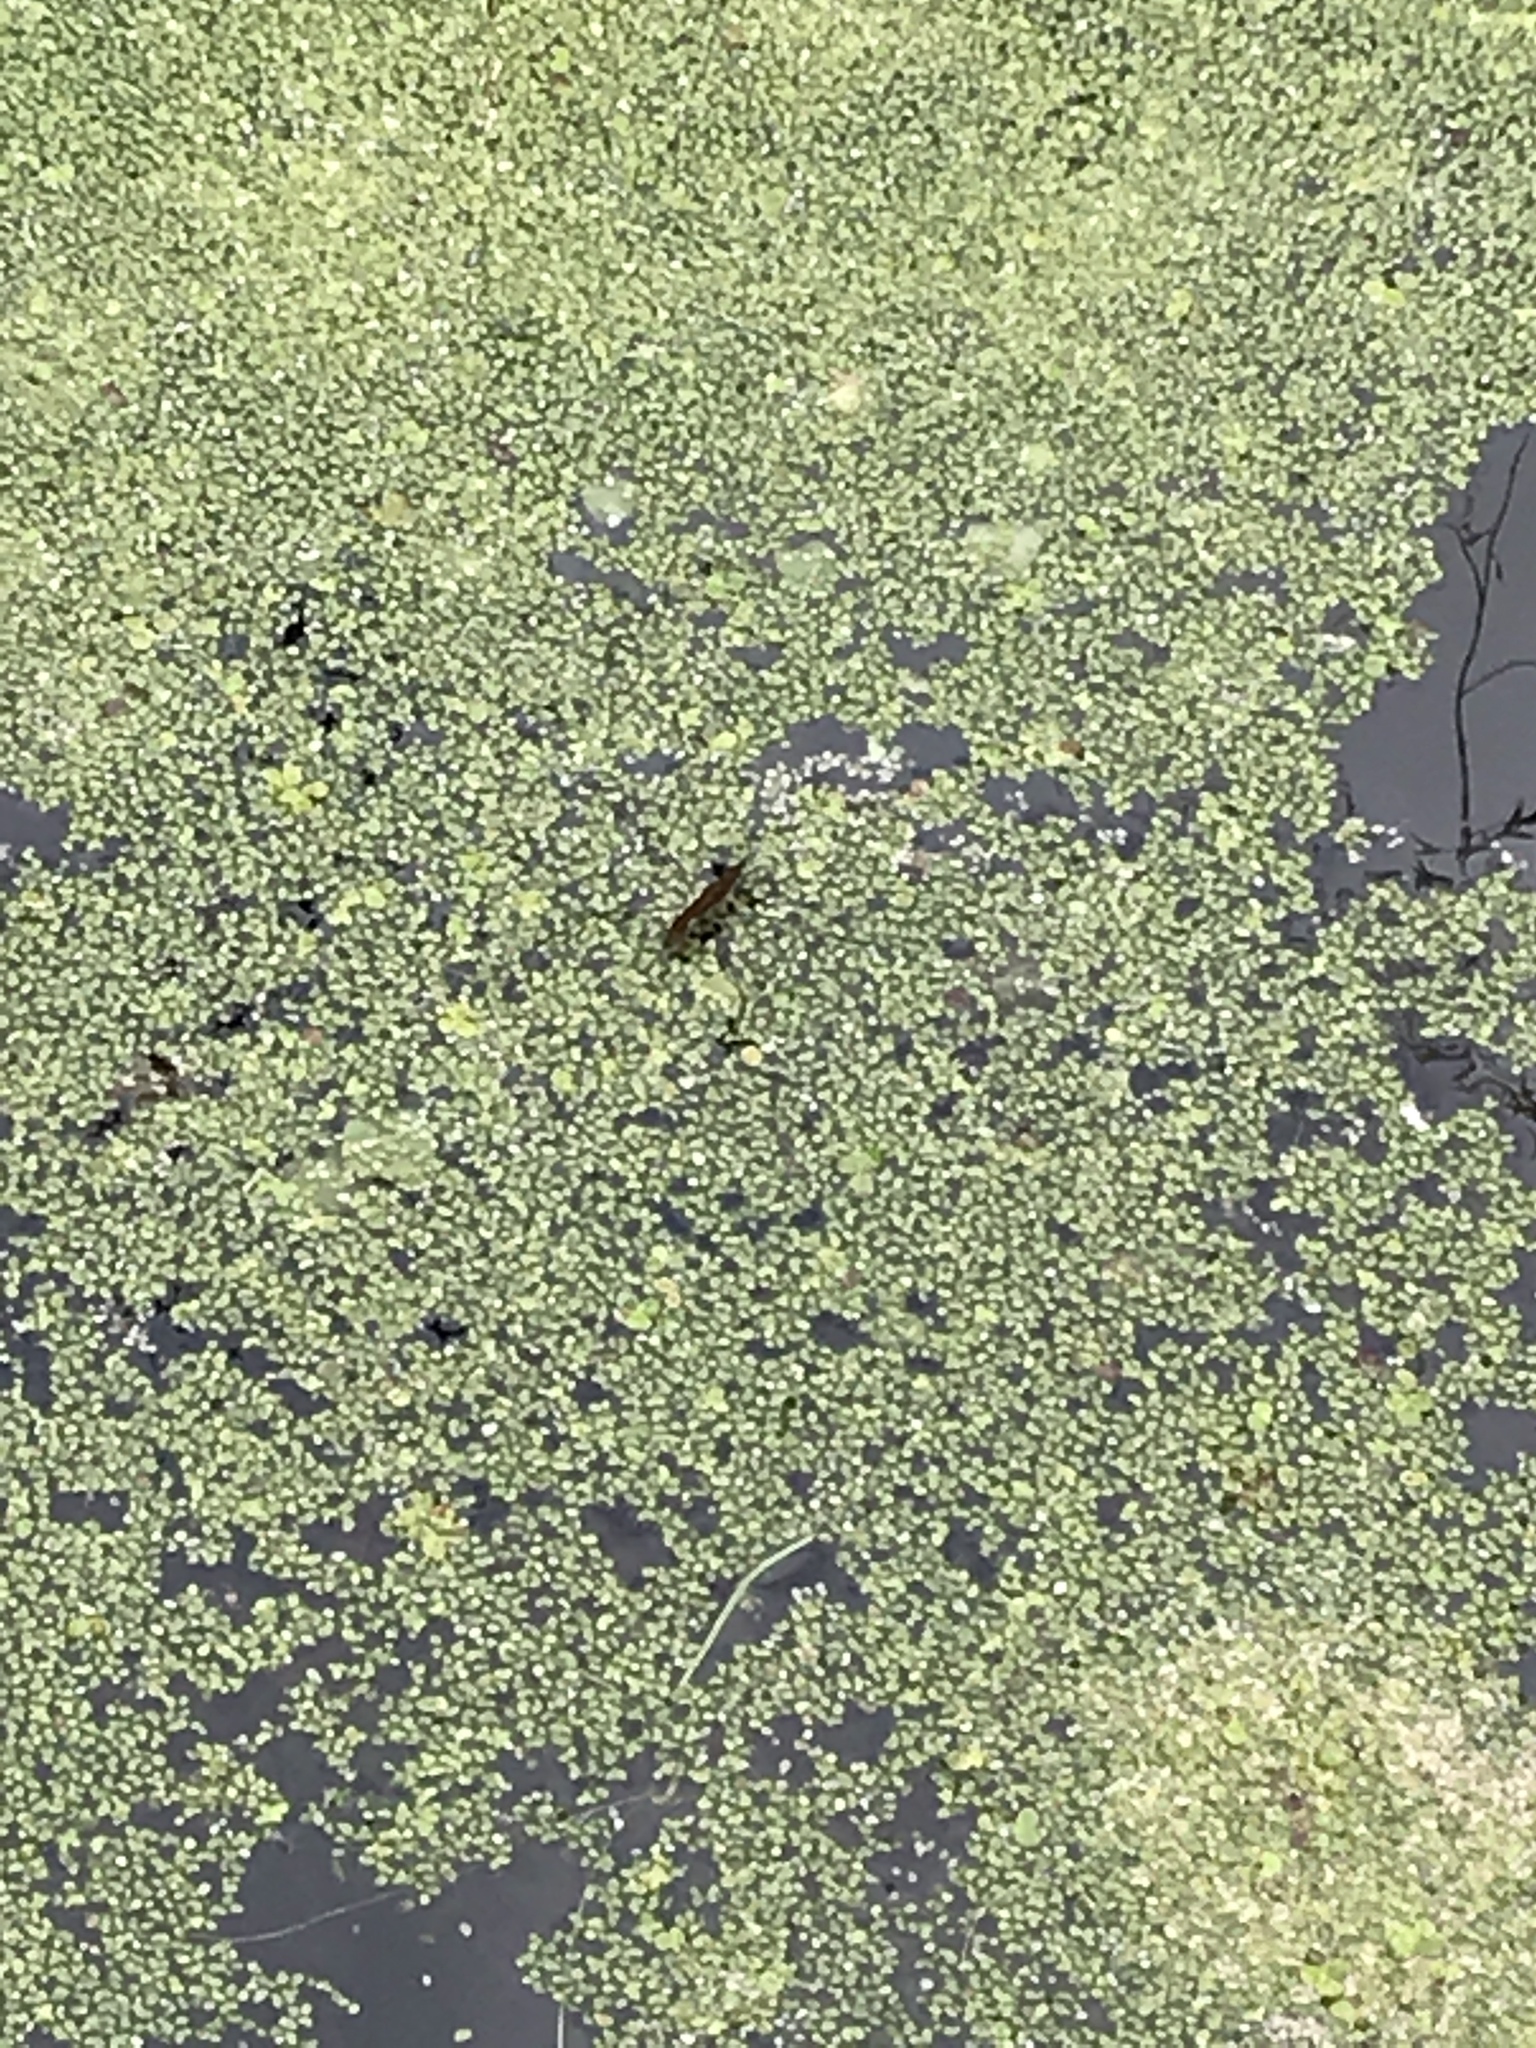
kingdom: Animalia
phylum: Arthropoda
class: Insecta
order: Hemiptera
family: Gerridae
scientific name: Gerridae
